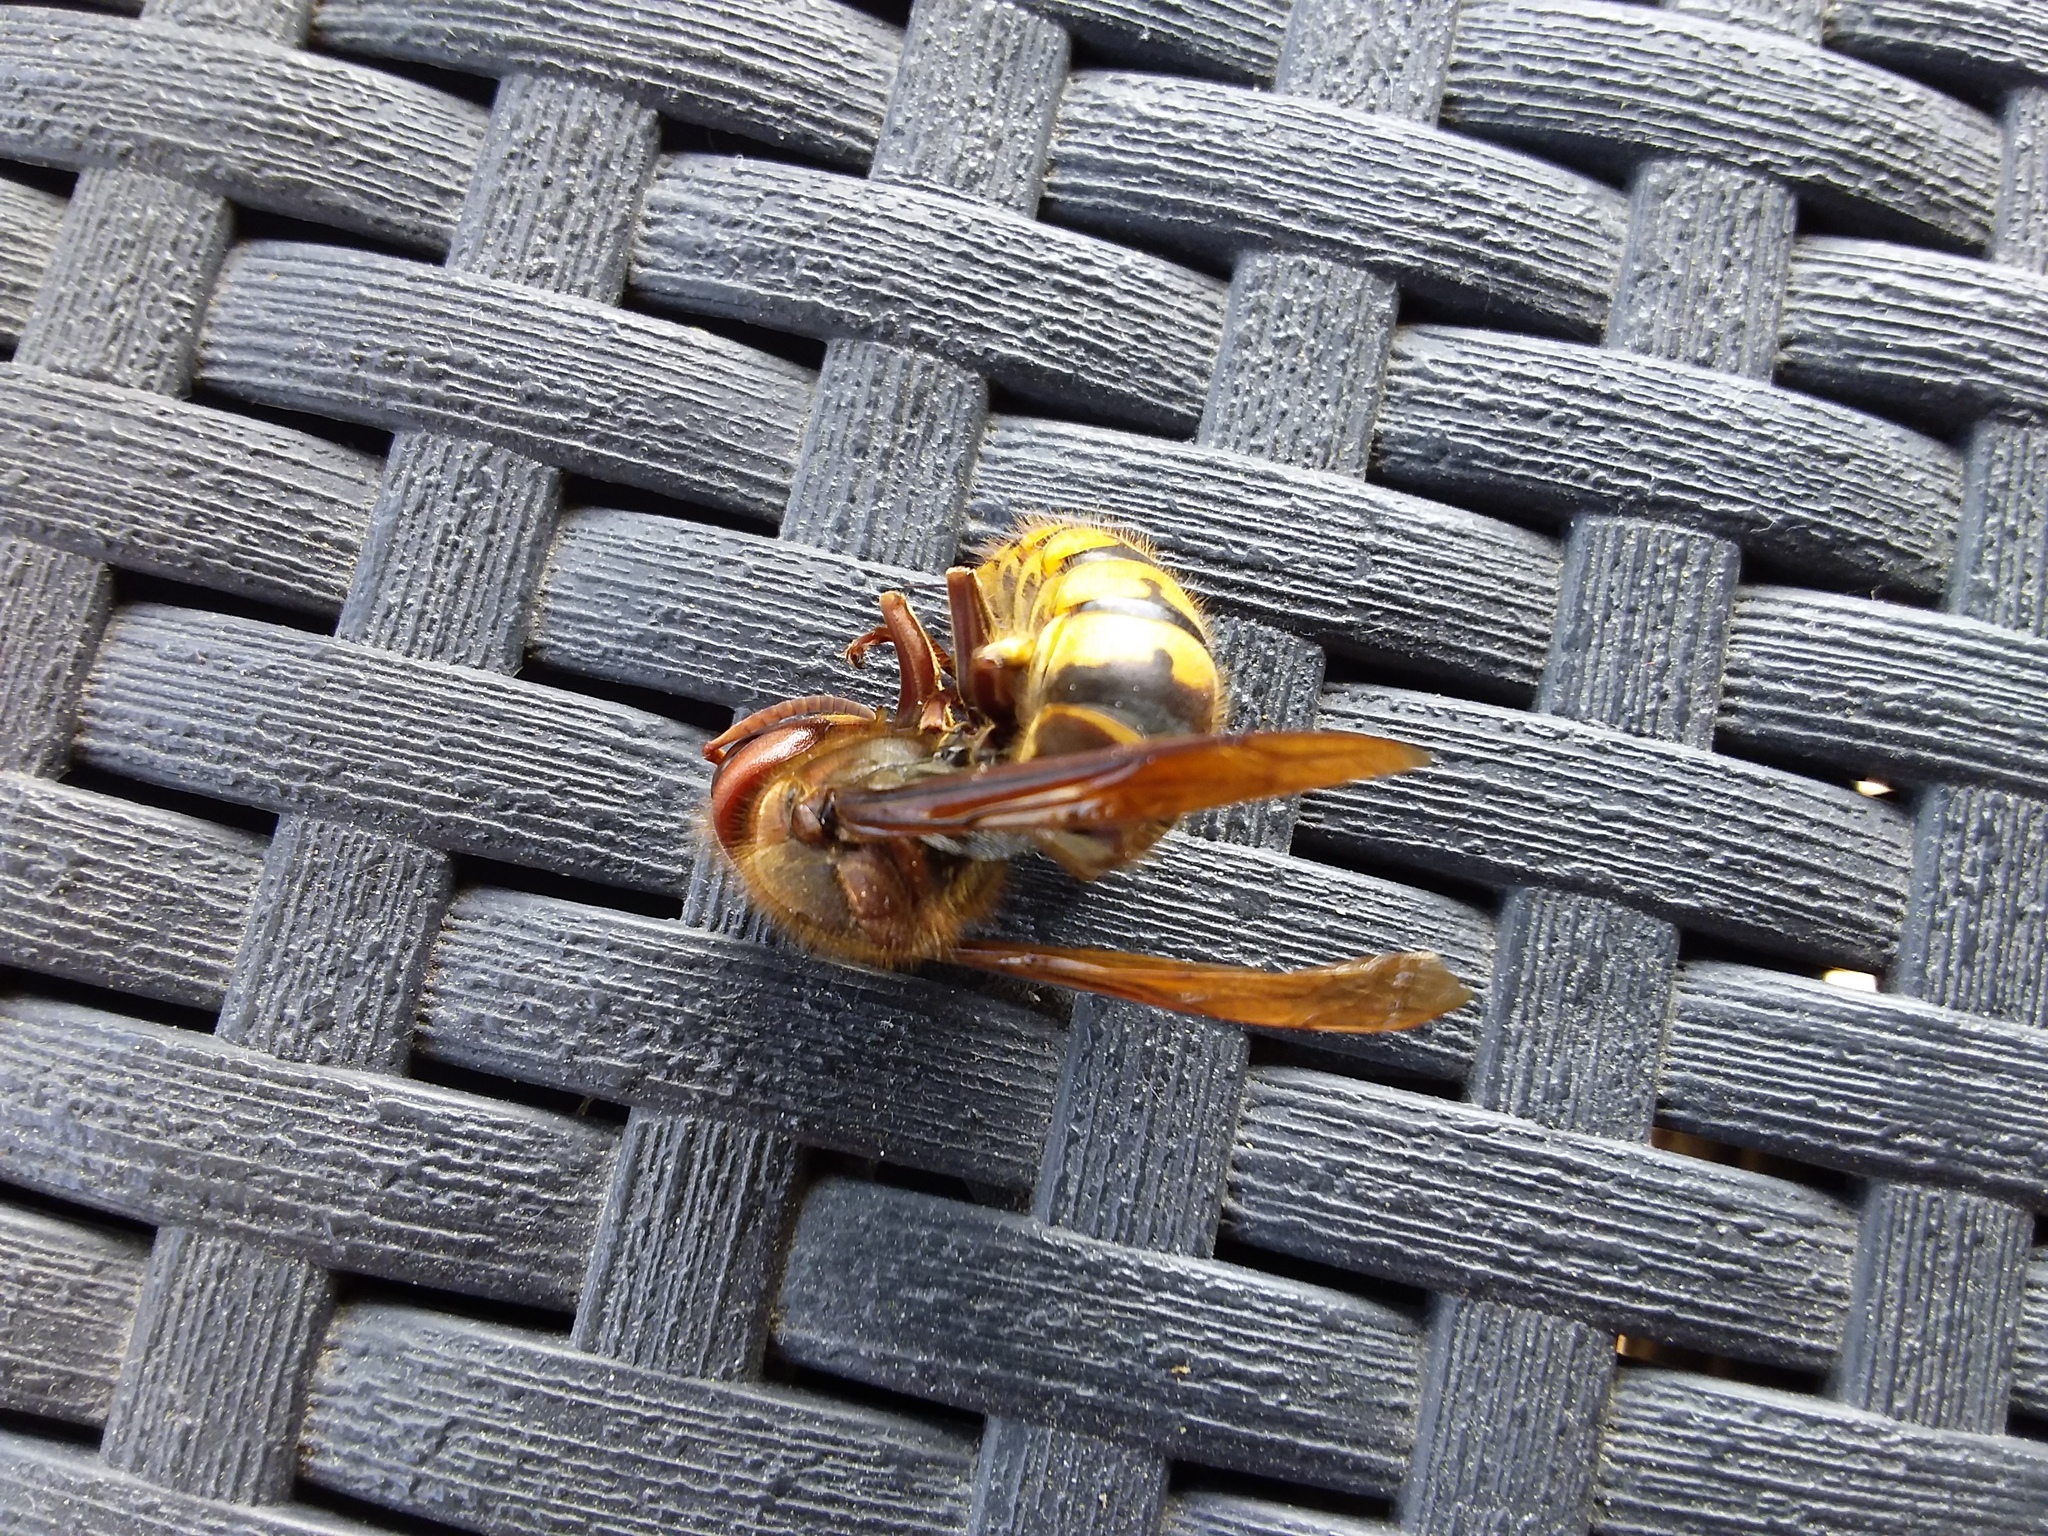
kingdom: Animalia
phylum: Arthropoda
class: Insecta
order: Hymenoptera
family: Vespidae
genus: Vespa
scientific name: Vespa crabro
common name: Hornet
